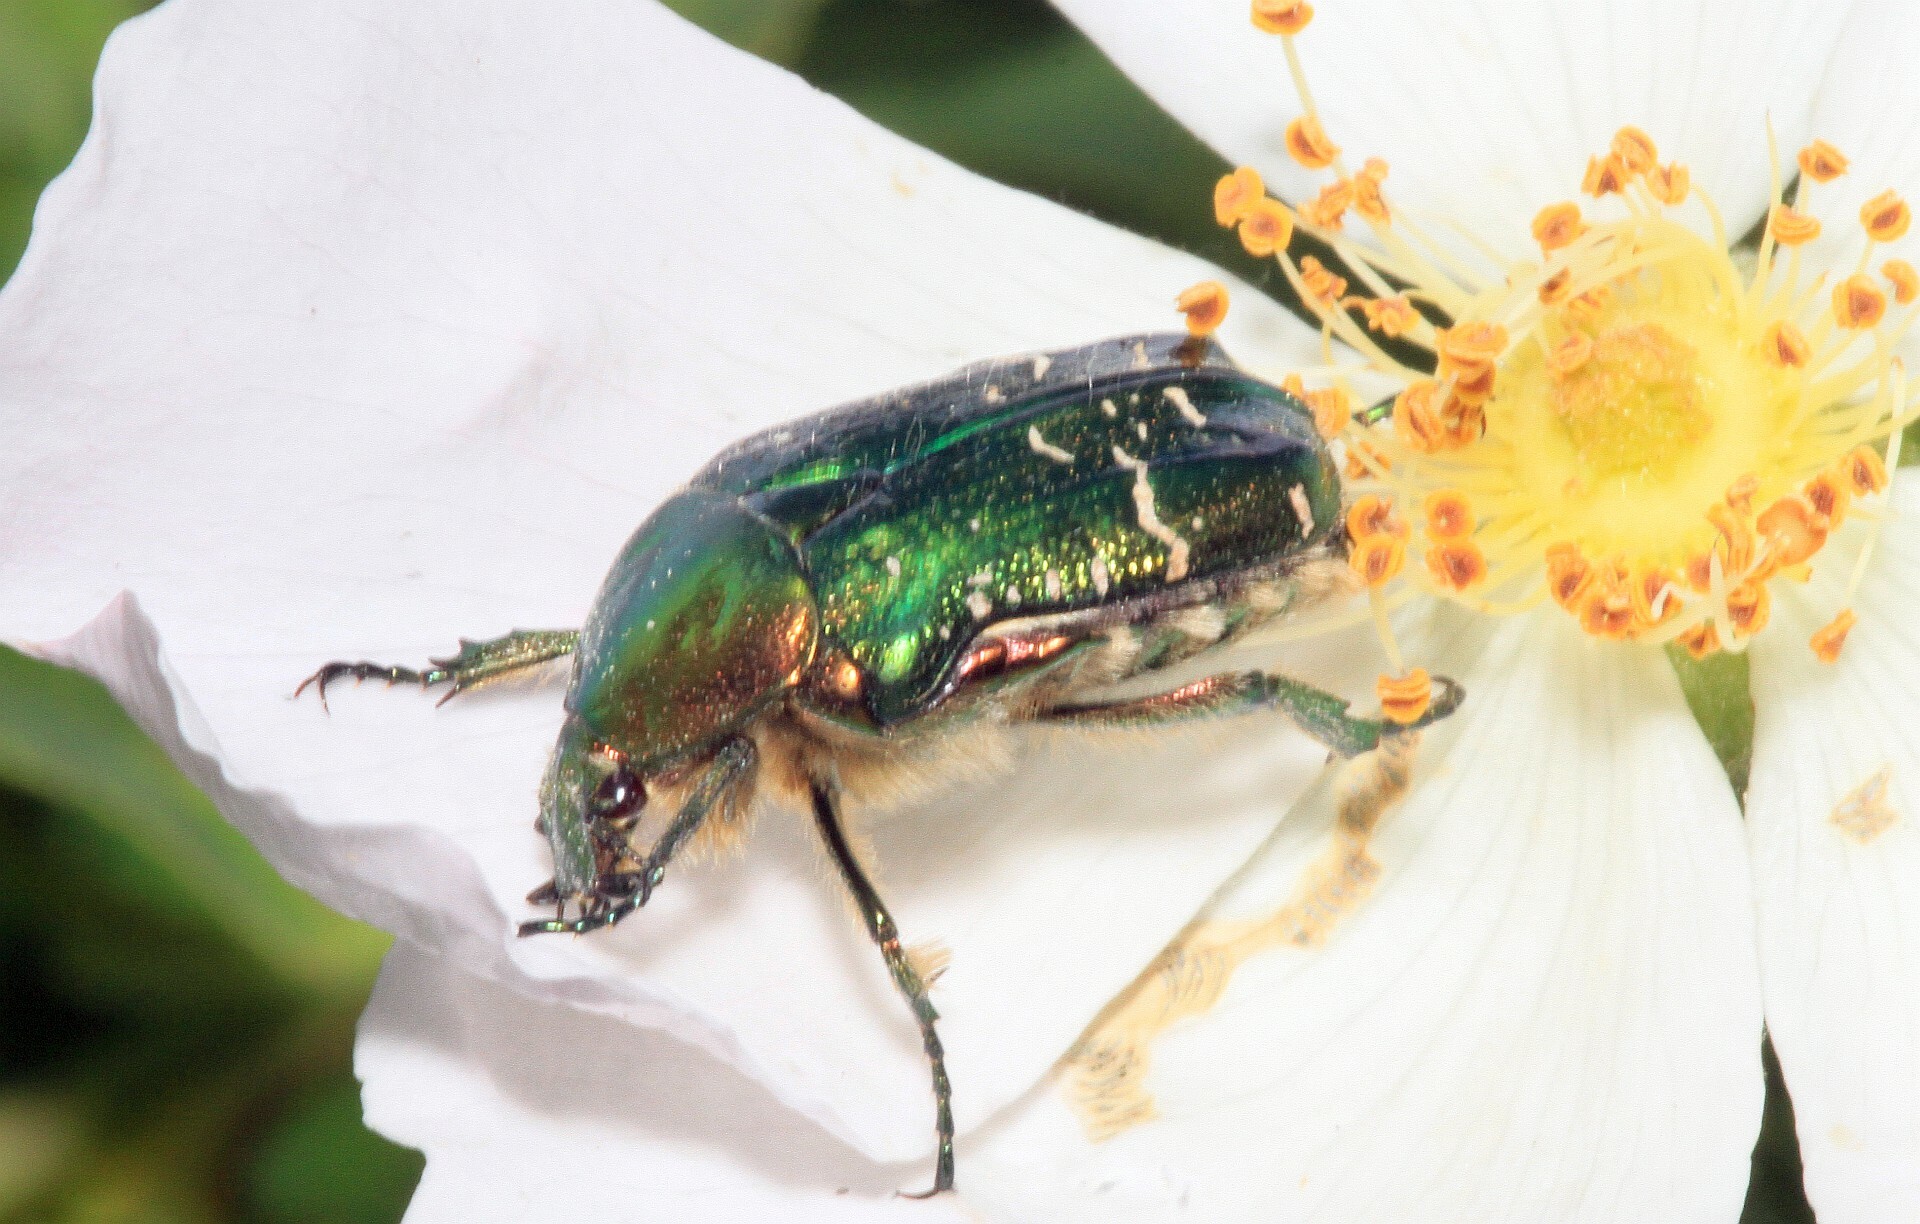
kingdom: Animalia
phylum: Arthropoda
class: Insecta
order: Coleoptera
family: Scarabaeidae
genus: Cetonia
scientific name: Cetonia aurata
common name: Rose chafer
